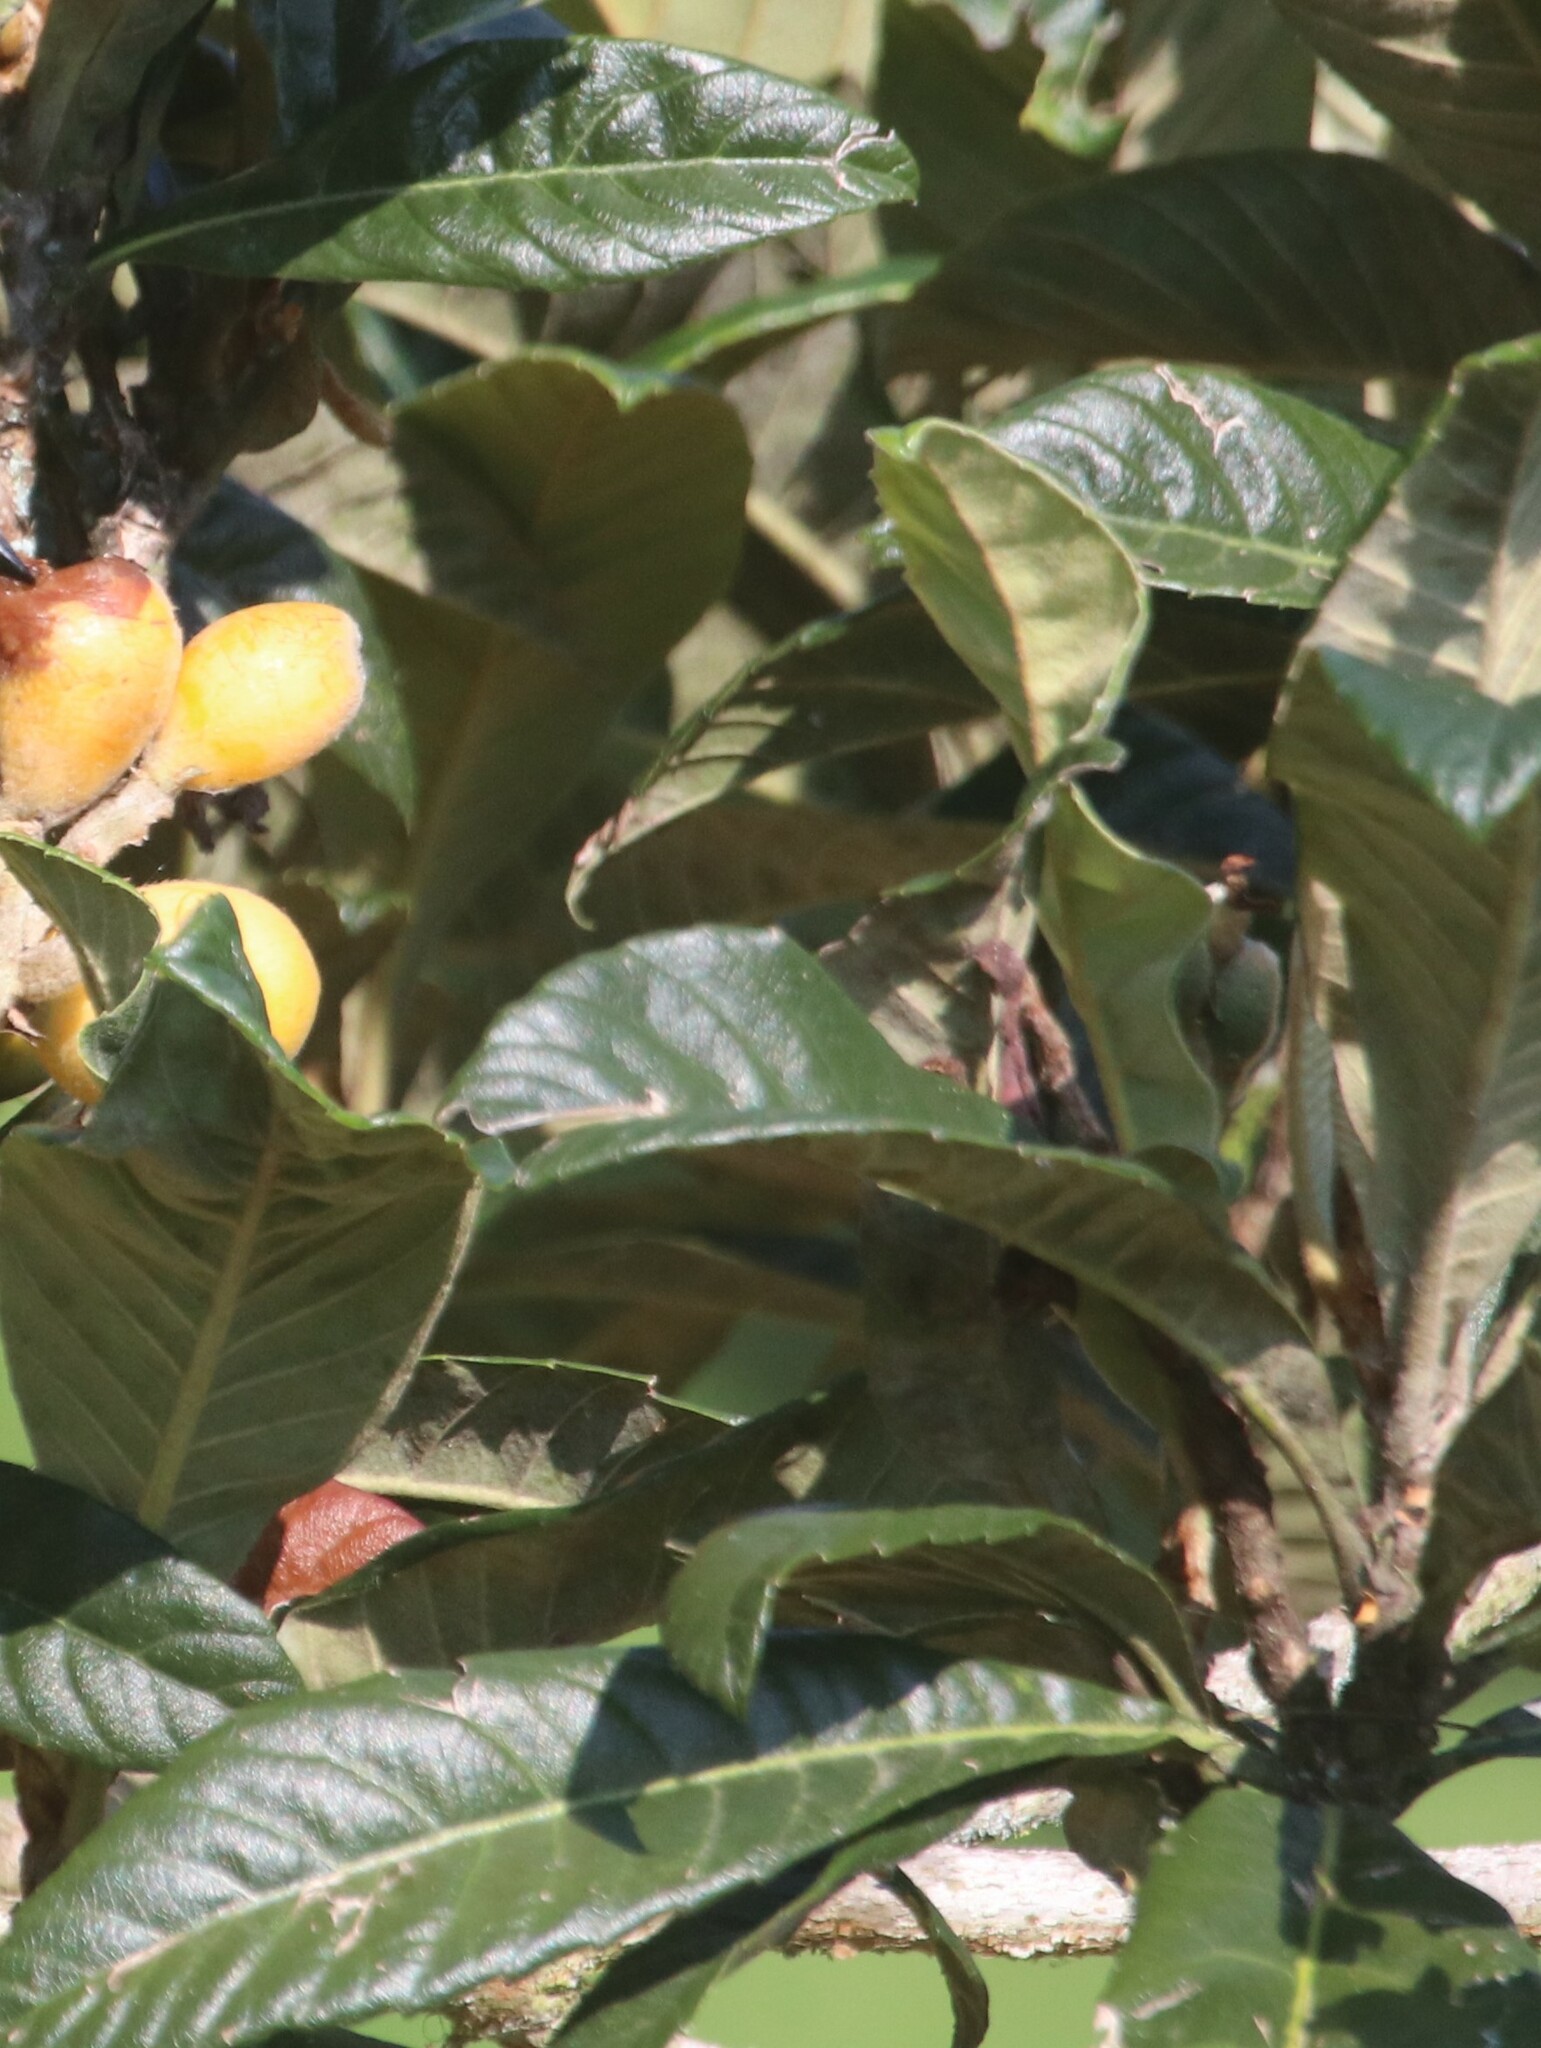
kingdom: Plantae
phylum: Tracheophyta
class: Magnoliopsida
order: Rosales
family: Rosaceae
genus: Rhaphiolepis
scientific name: Rhaphiolepis bibas
